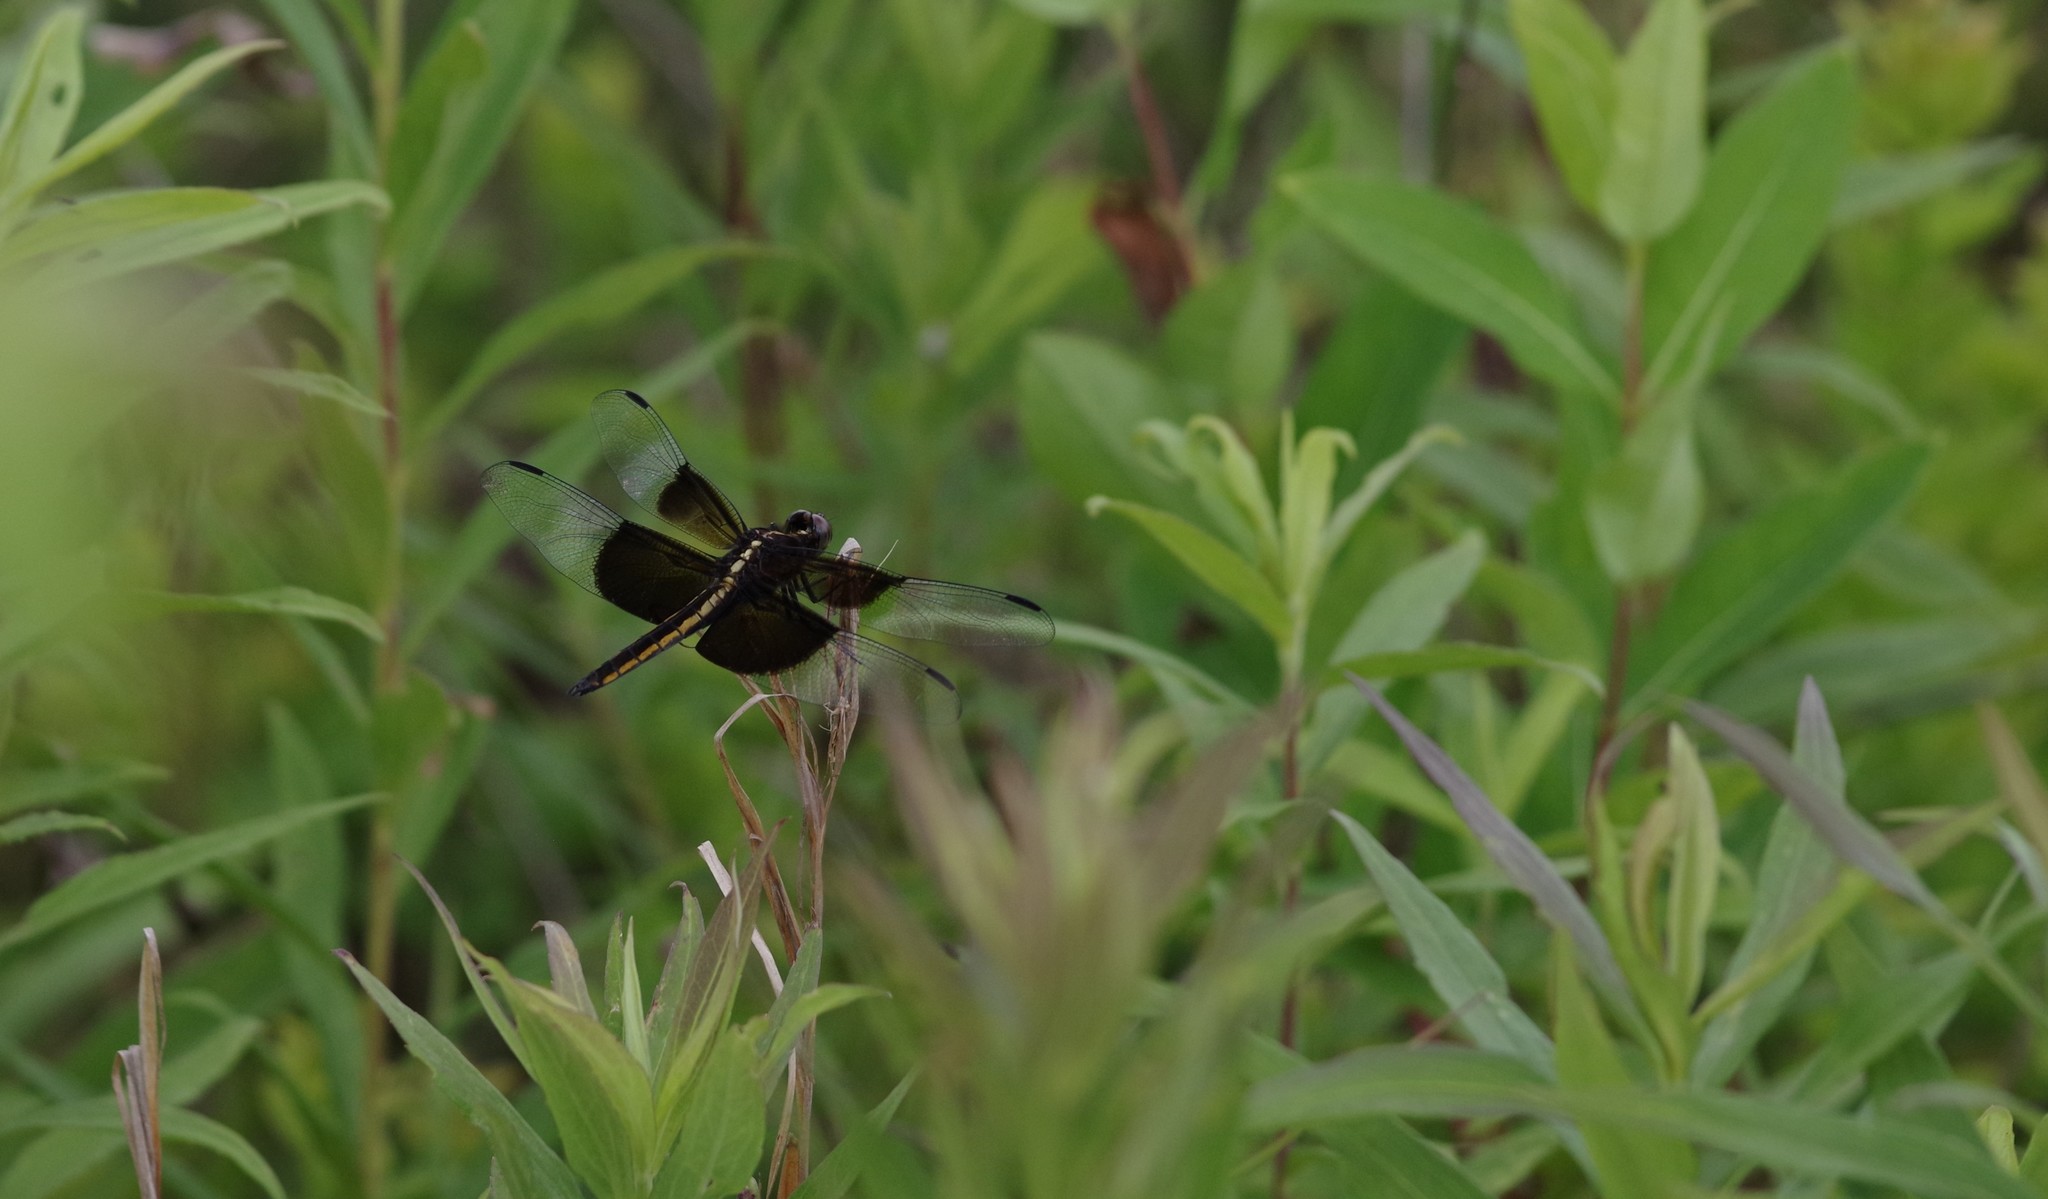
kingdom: Animalia
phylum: Arthropoda
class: Insecta
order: Odonata
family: Libellulidae
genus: Libellula
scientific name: Libellula luctuosa
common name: Widow skimmer
